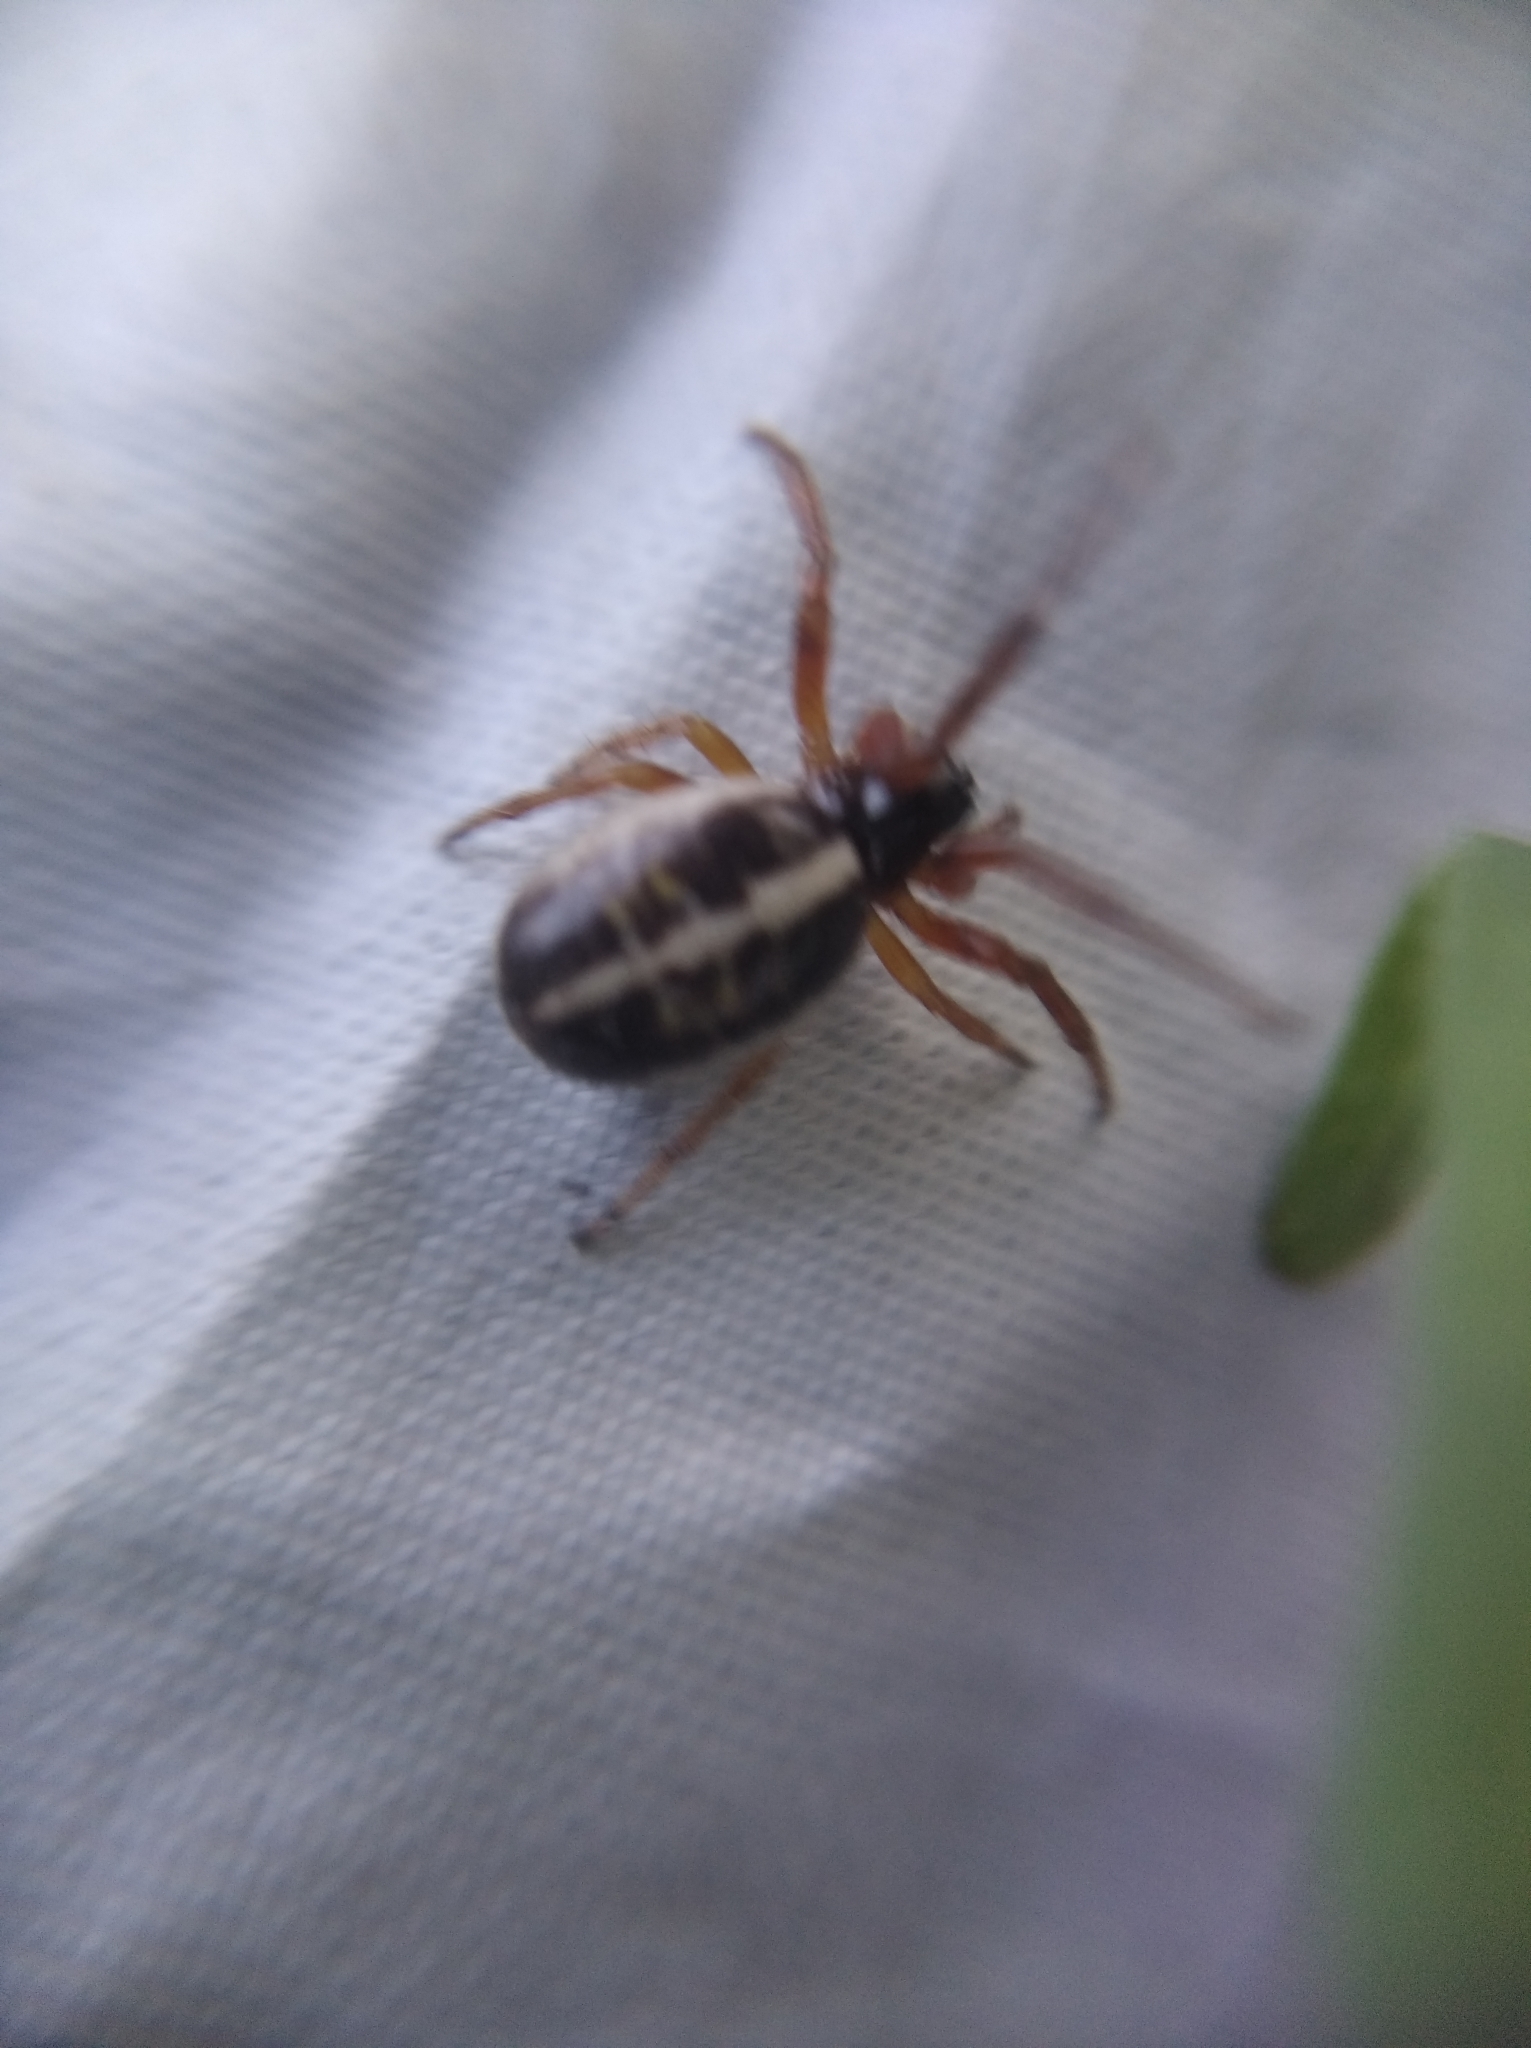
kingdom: Animalia
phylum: Arthropoda
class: Arachnida
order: Araneae
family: Araneidae
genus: Singa
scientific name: Singa hamata
